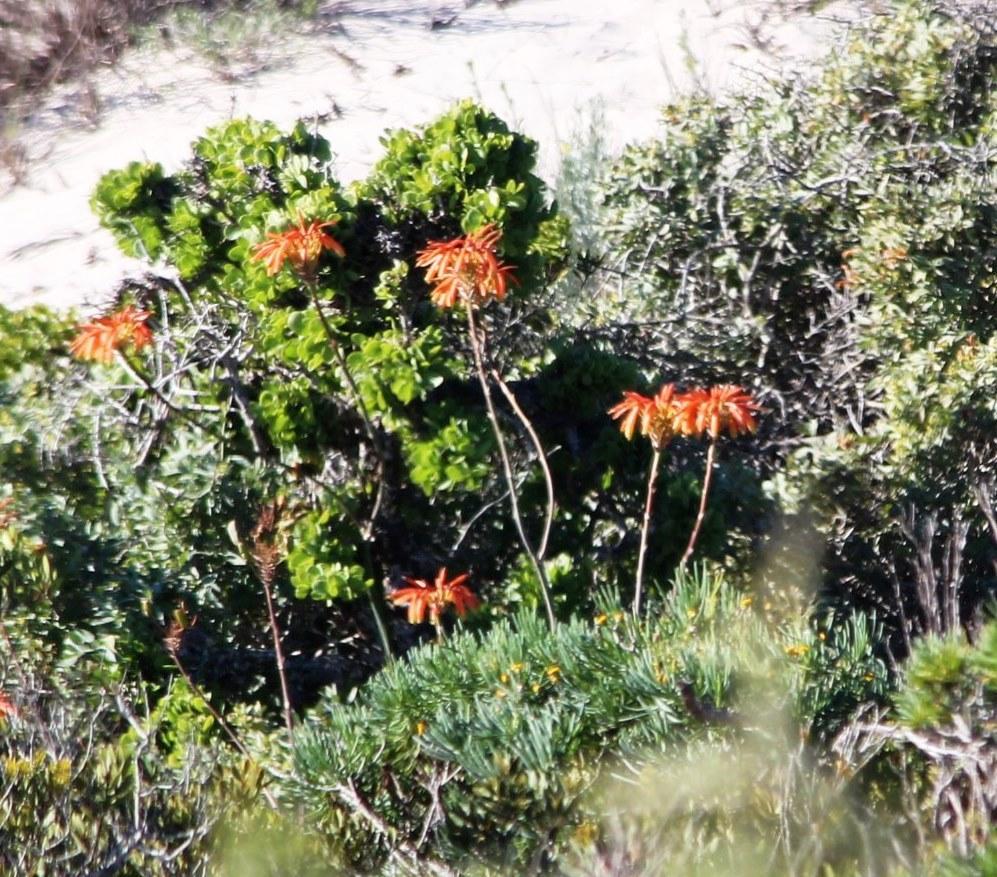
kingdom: Plantae
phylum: Tracheophyta
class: Liliopsida
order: Asparagales
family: Asphodelaceae
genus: Aloe
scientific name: Aloe arenicola
